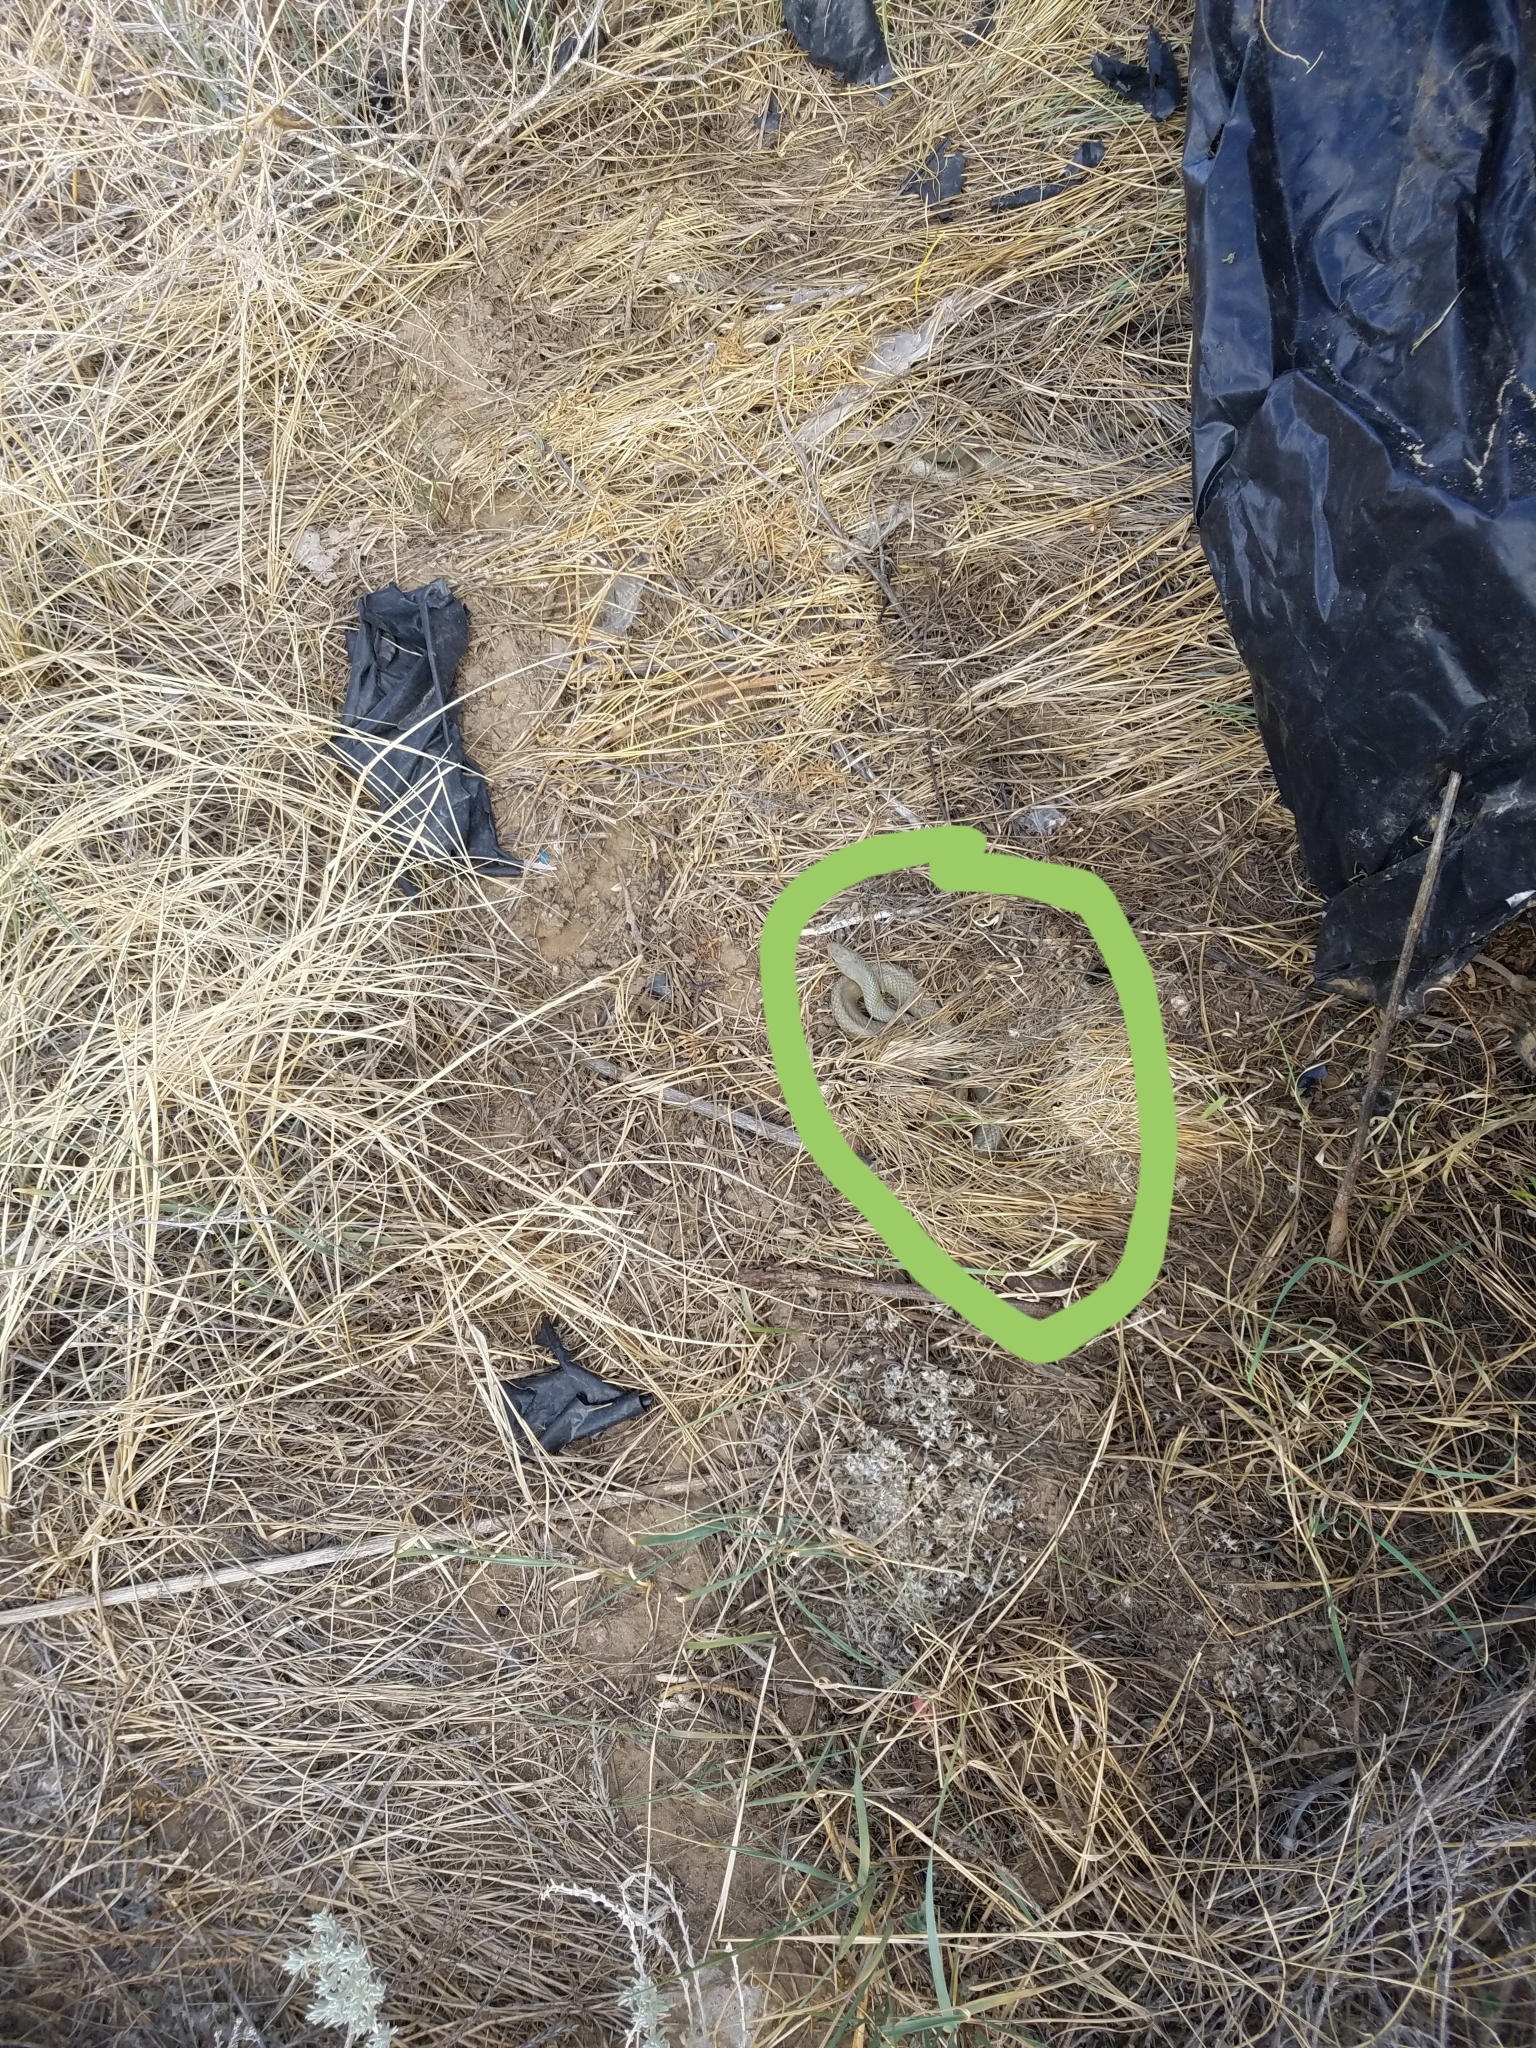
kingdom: Animalia
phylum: Chordata
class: Squamata
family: Colubridae
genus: Coluber
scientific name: Coluber constrictor
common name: Eastern racer
